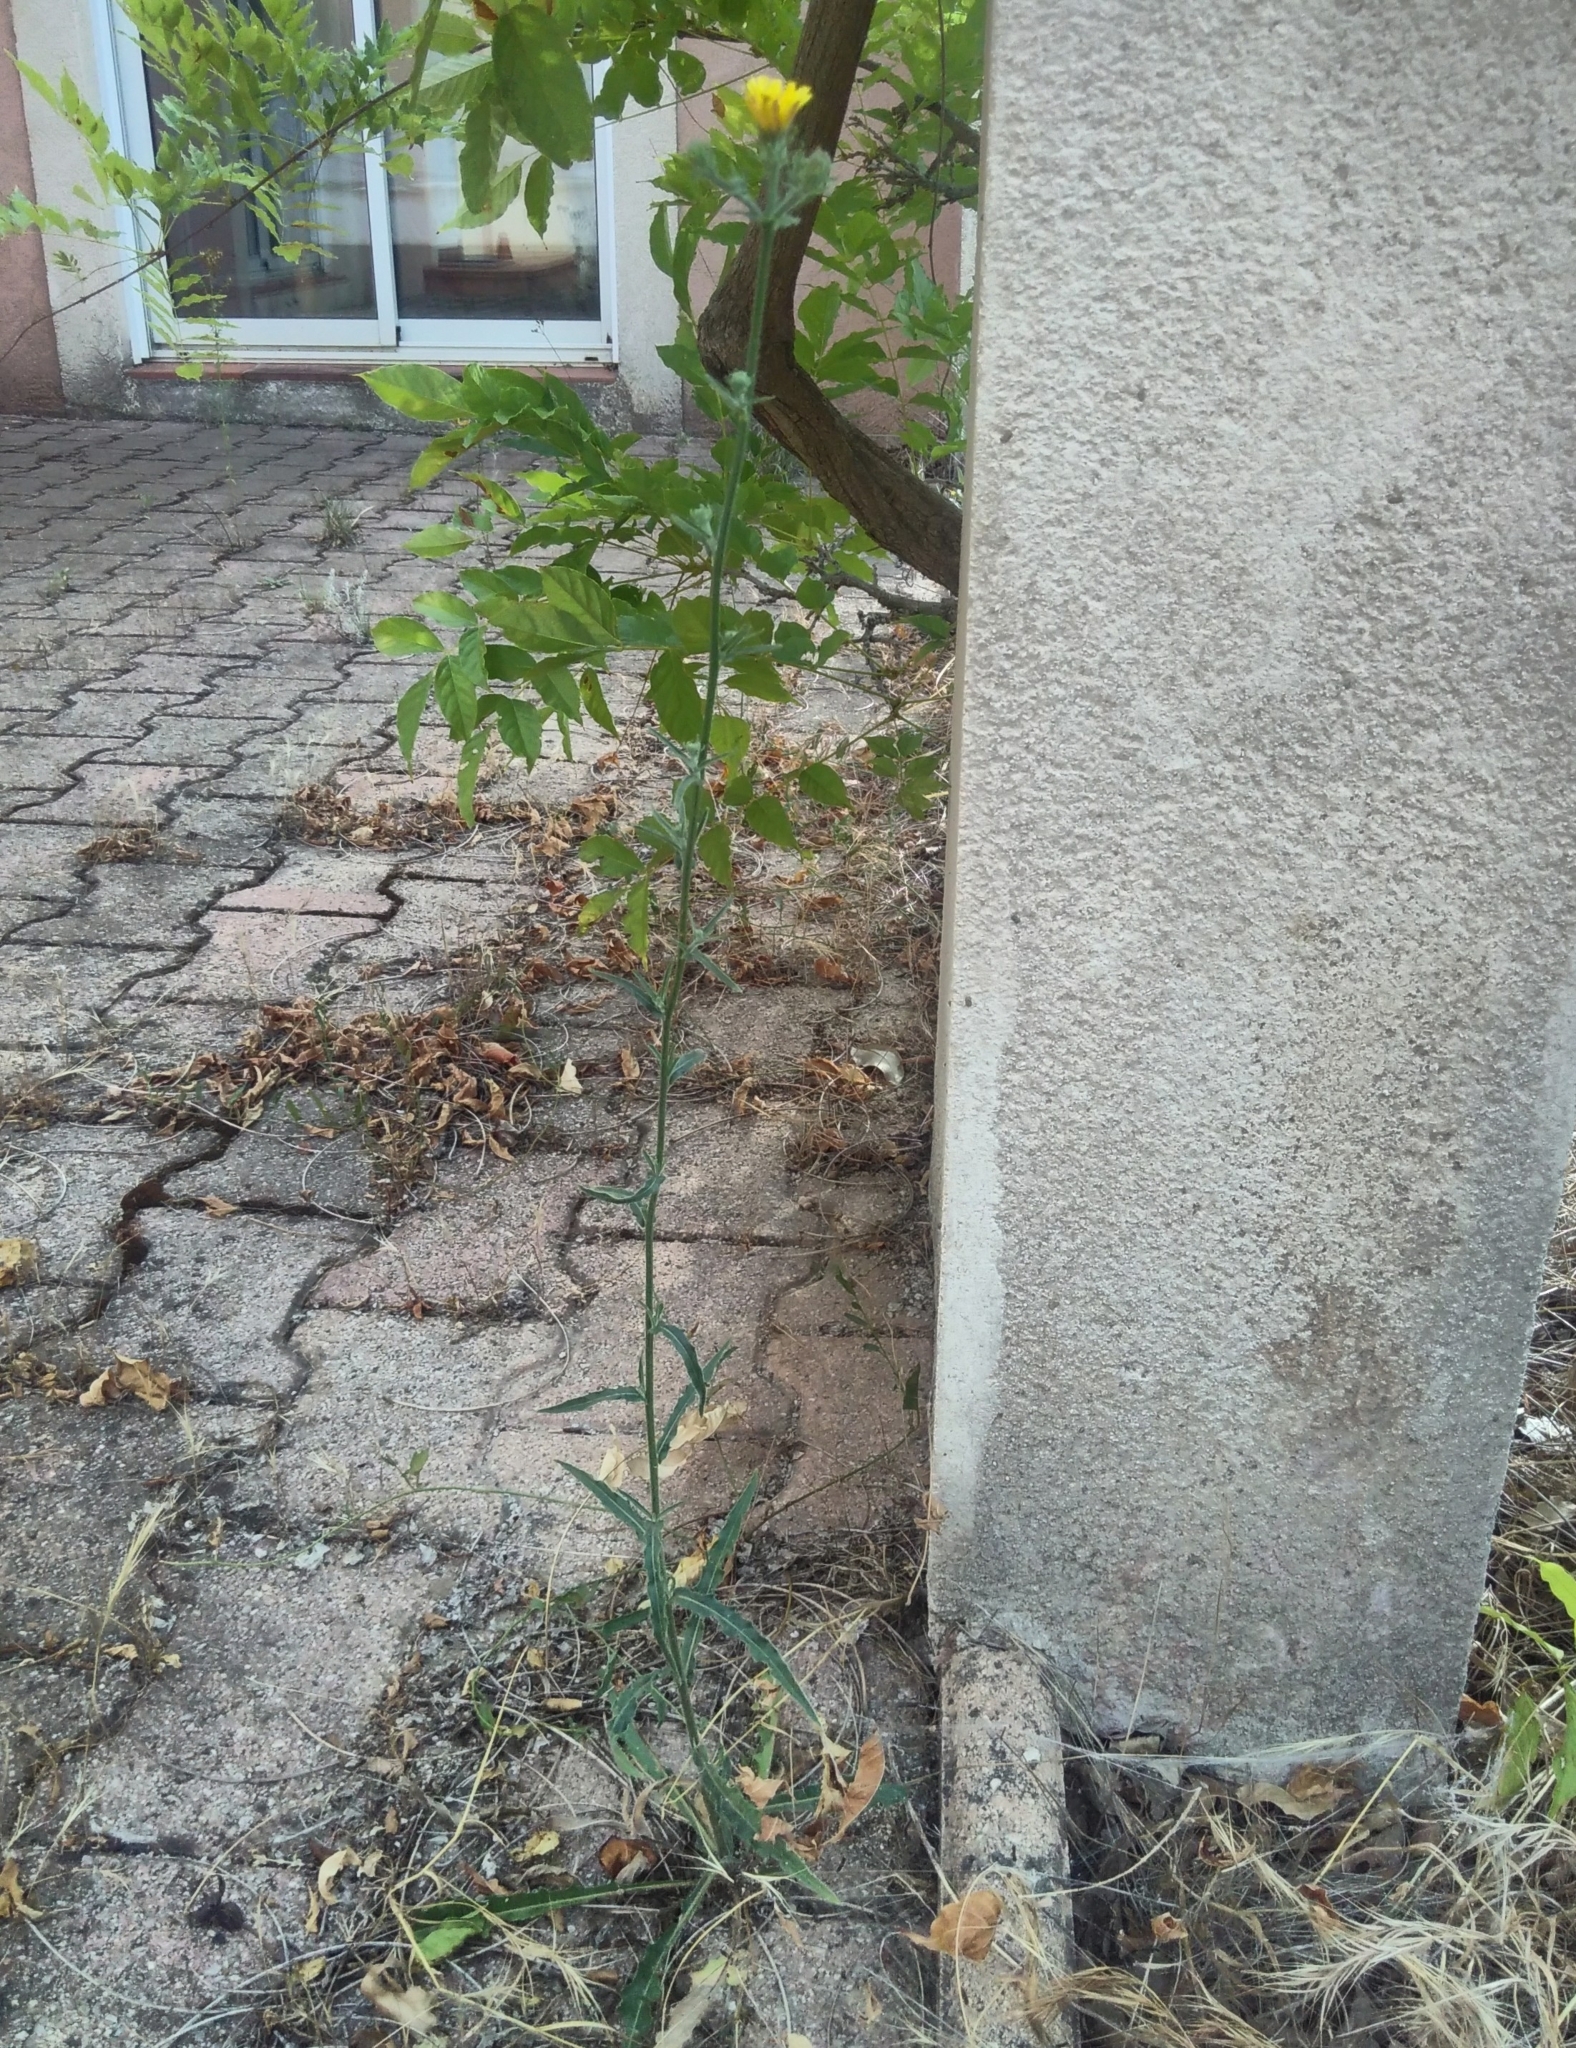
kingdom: Plantae
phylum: Tracheophyta
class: Magnoliopsida
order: Asterales
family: Asteraceae
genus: Picris
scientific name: Picris hieracioides
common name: Hawkweed oxtongue
